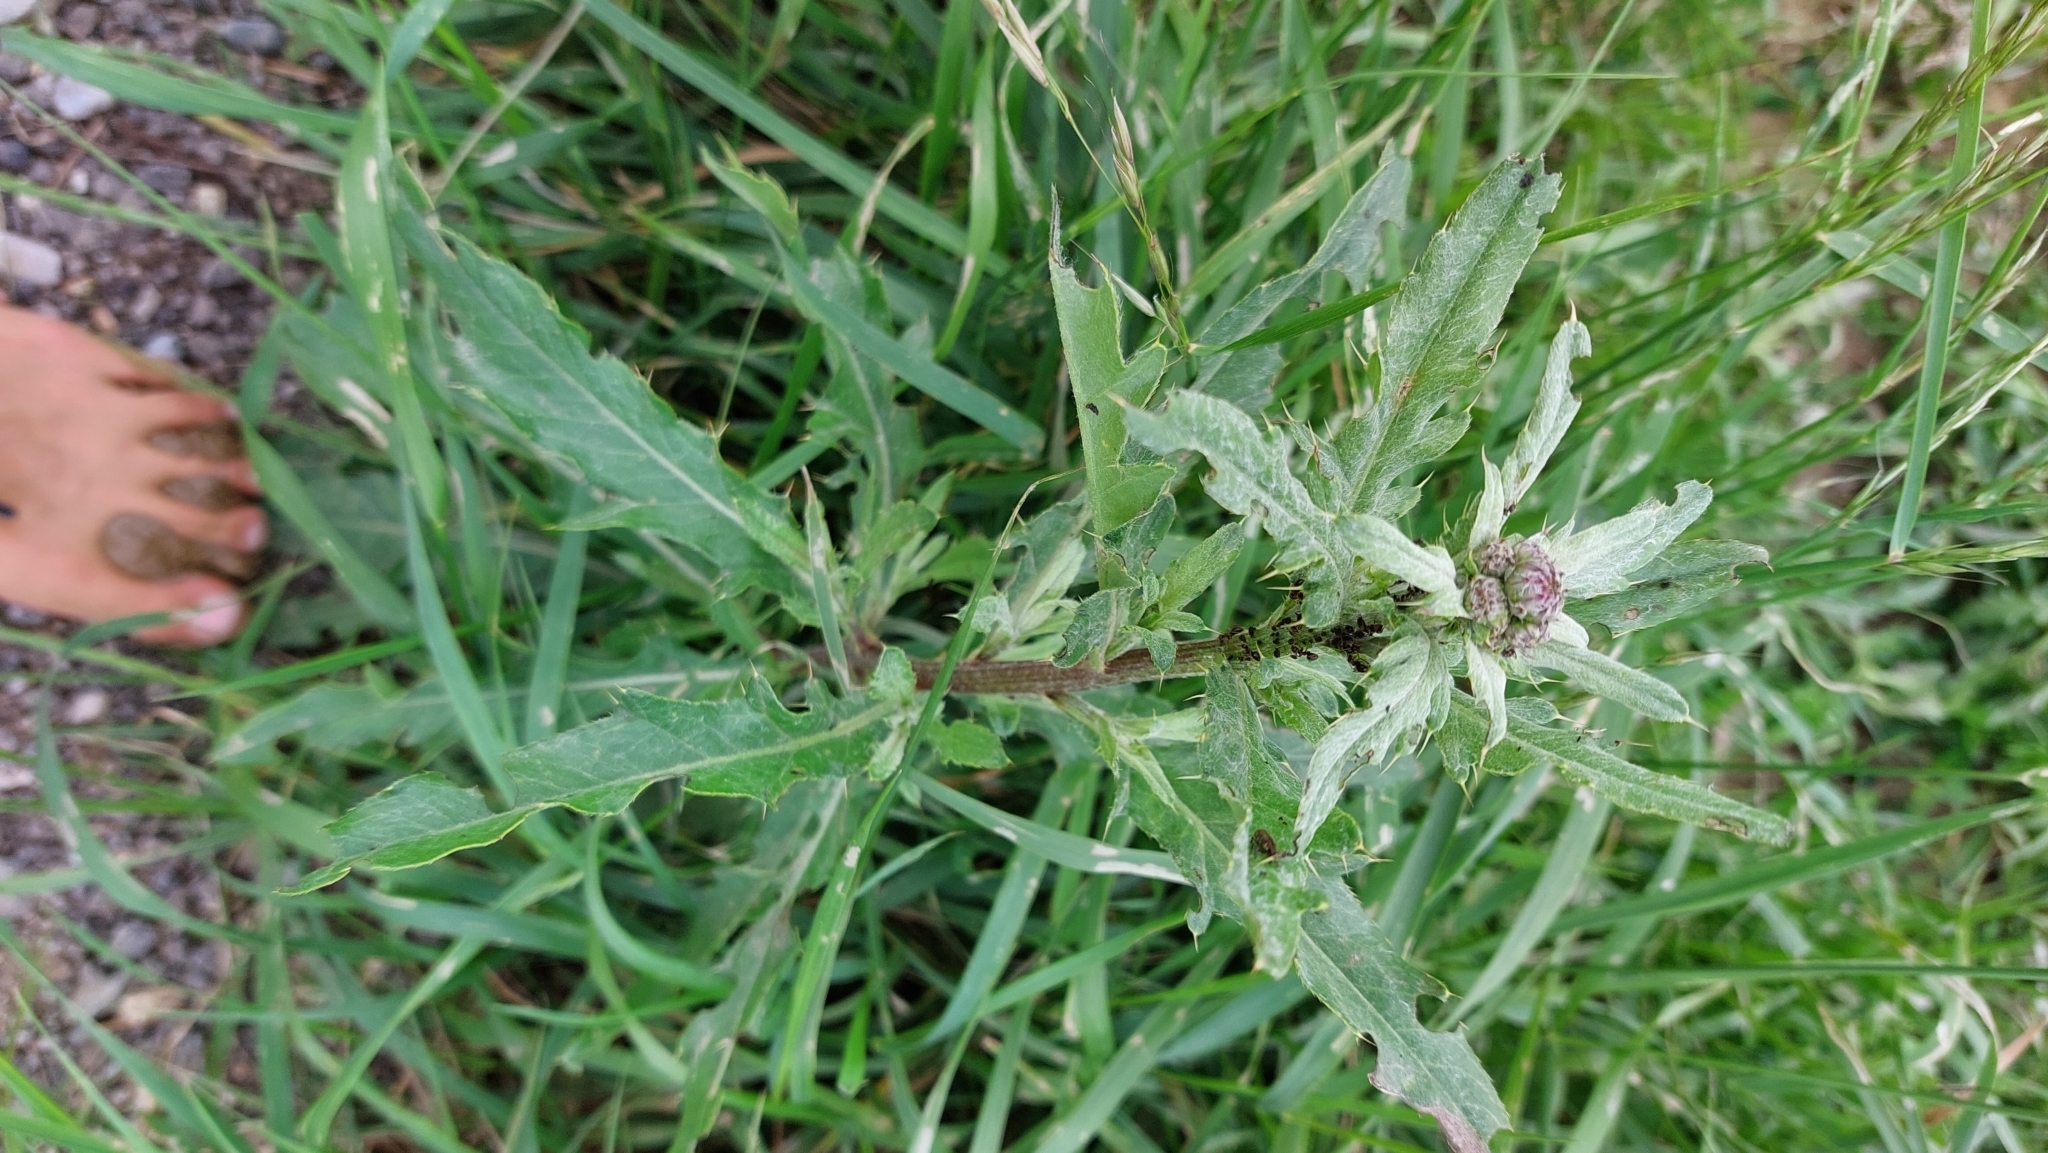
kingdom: Plantae
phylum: Tracheophyta
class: Magnoliopsida
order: Asterales
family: Asteraceae
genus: Cirsium
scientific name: Cirsium arvense
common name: Creeping thistle
